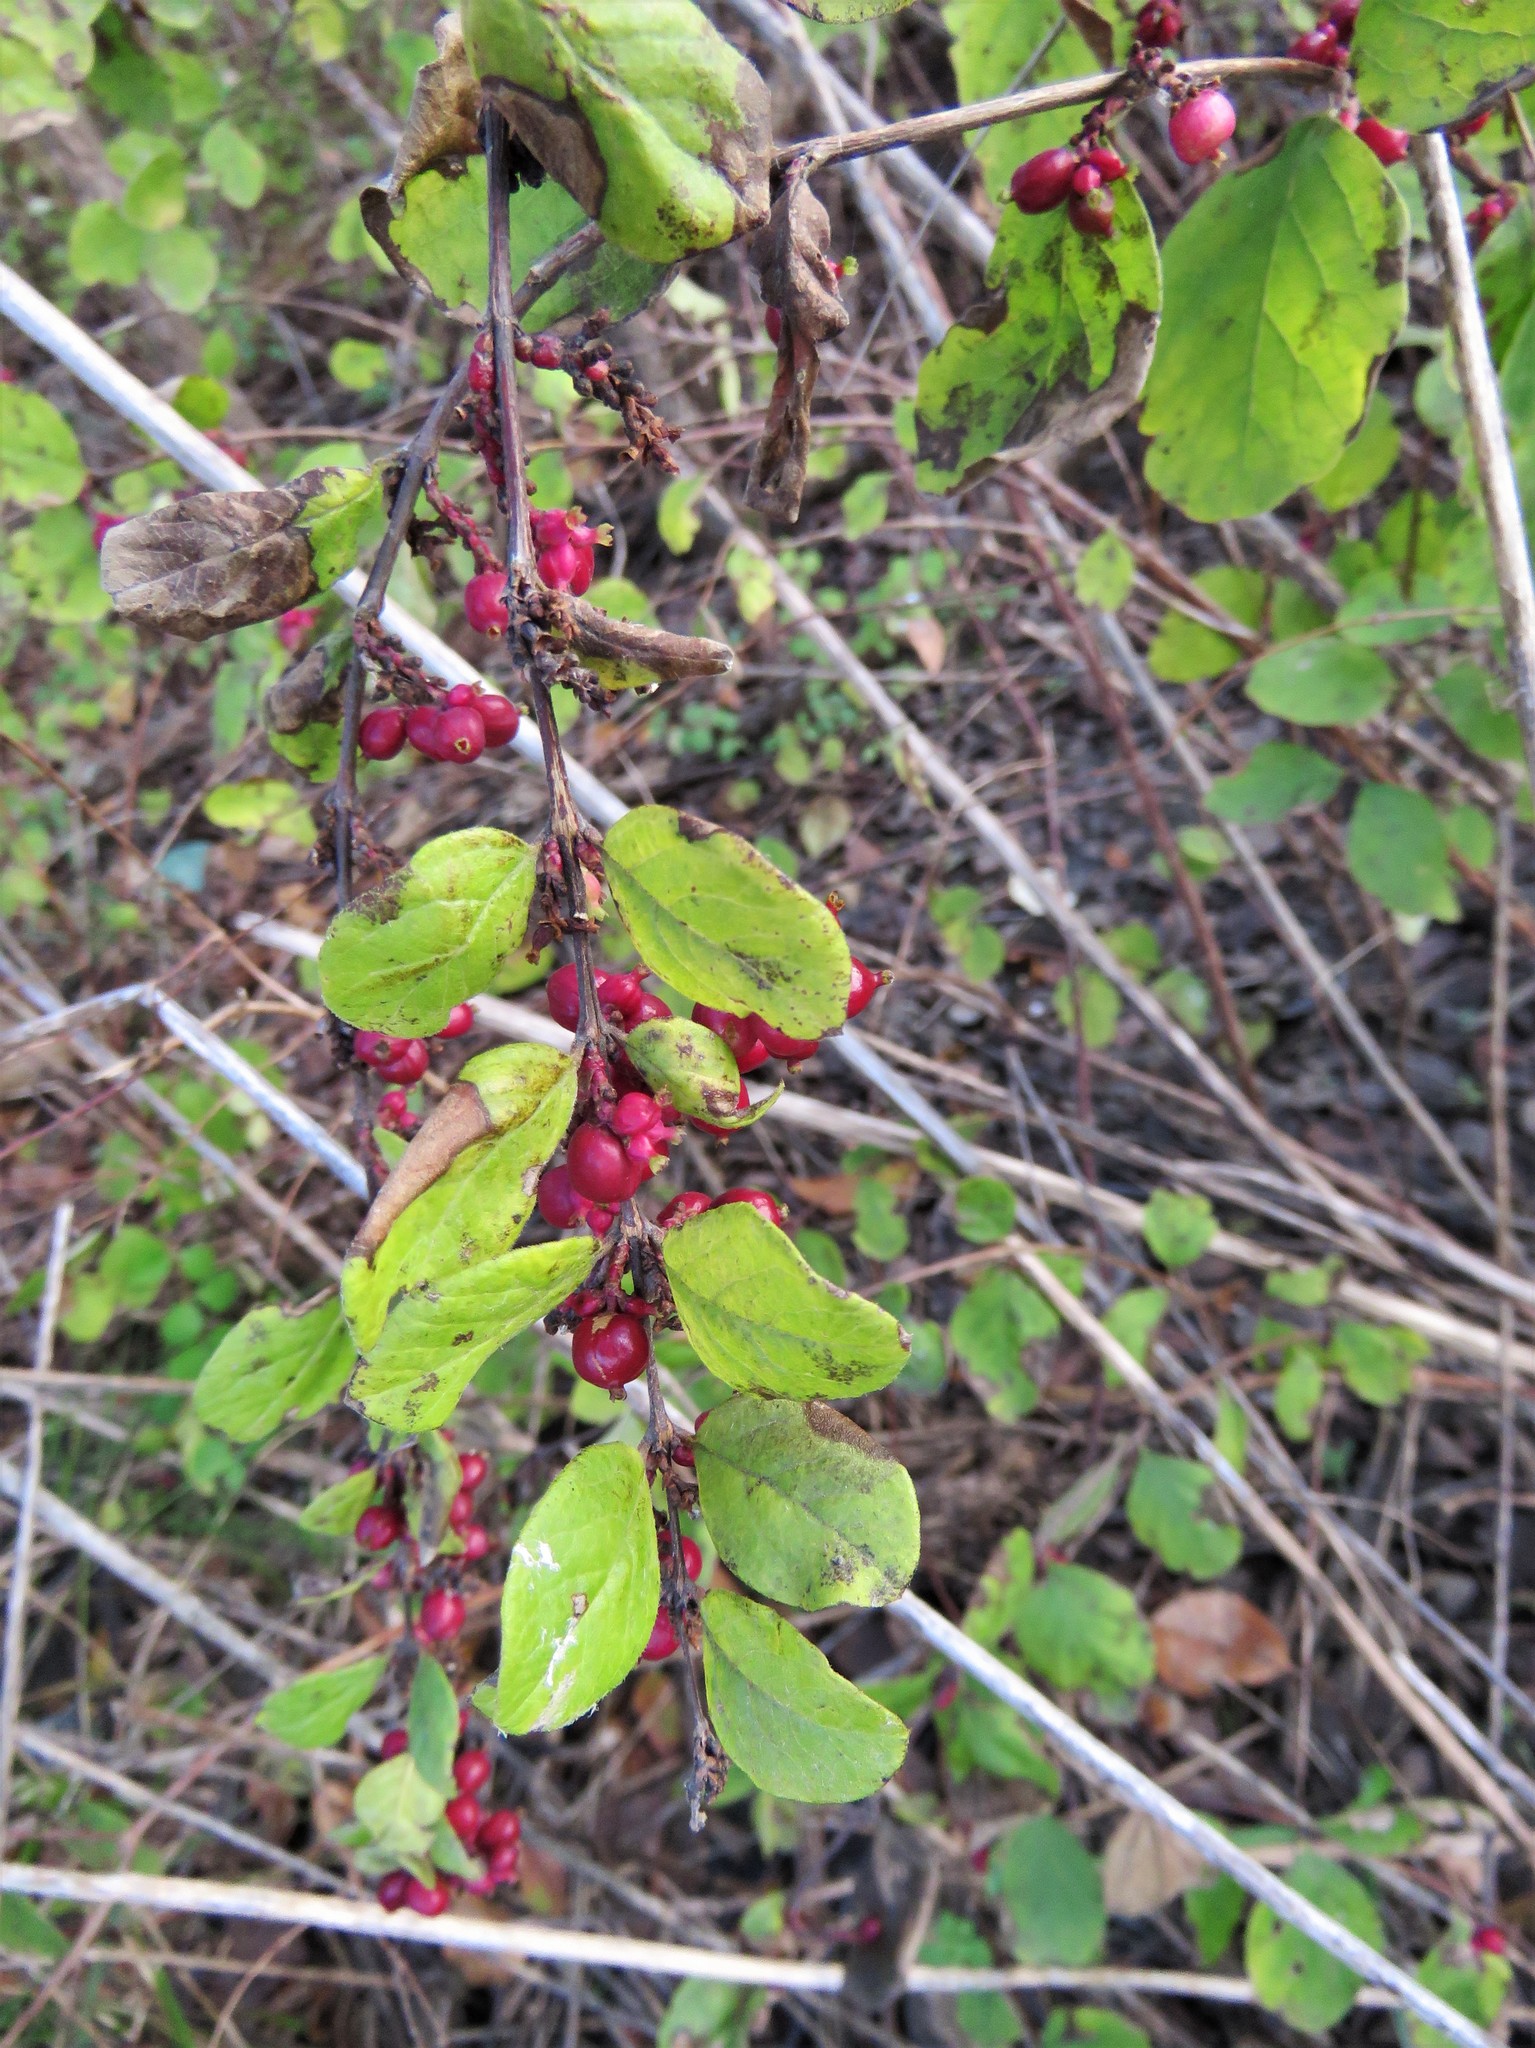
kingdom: Plantae
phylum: Tracheophyta
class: Magnoliopsida
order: Dipsacales
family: Caprifoliaceae
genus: Symphoricarpos
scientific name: Symphoricarpos orbiculatus
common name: Coralberry
